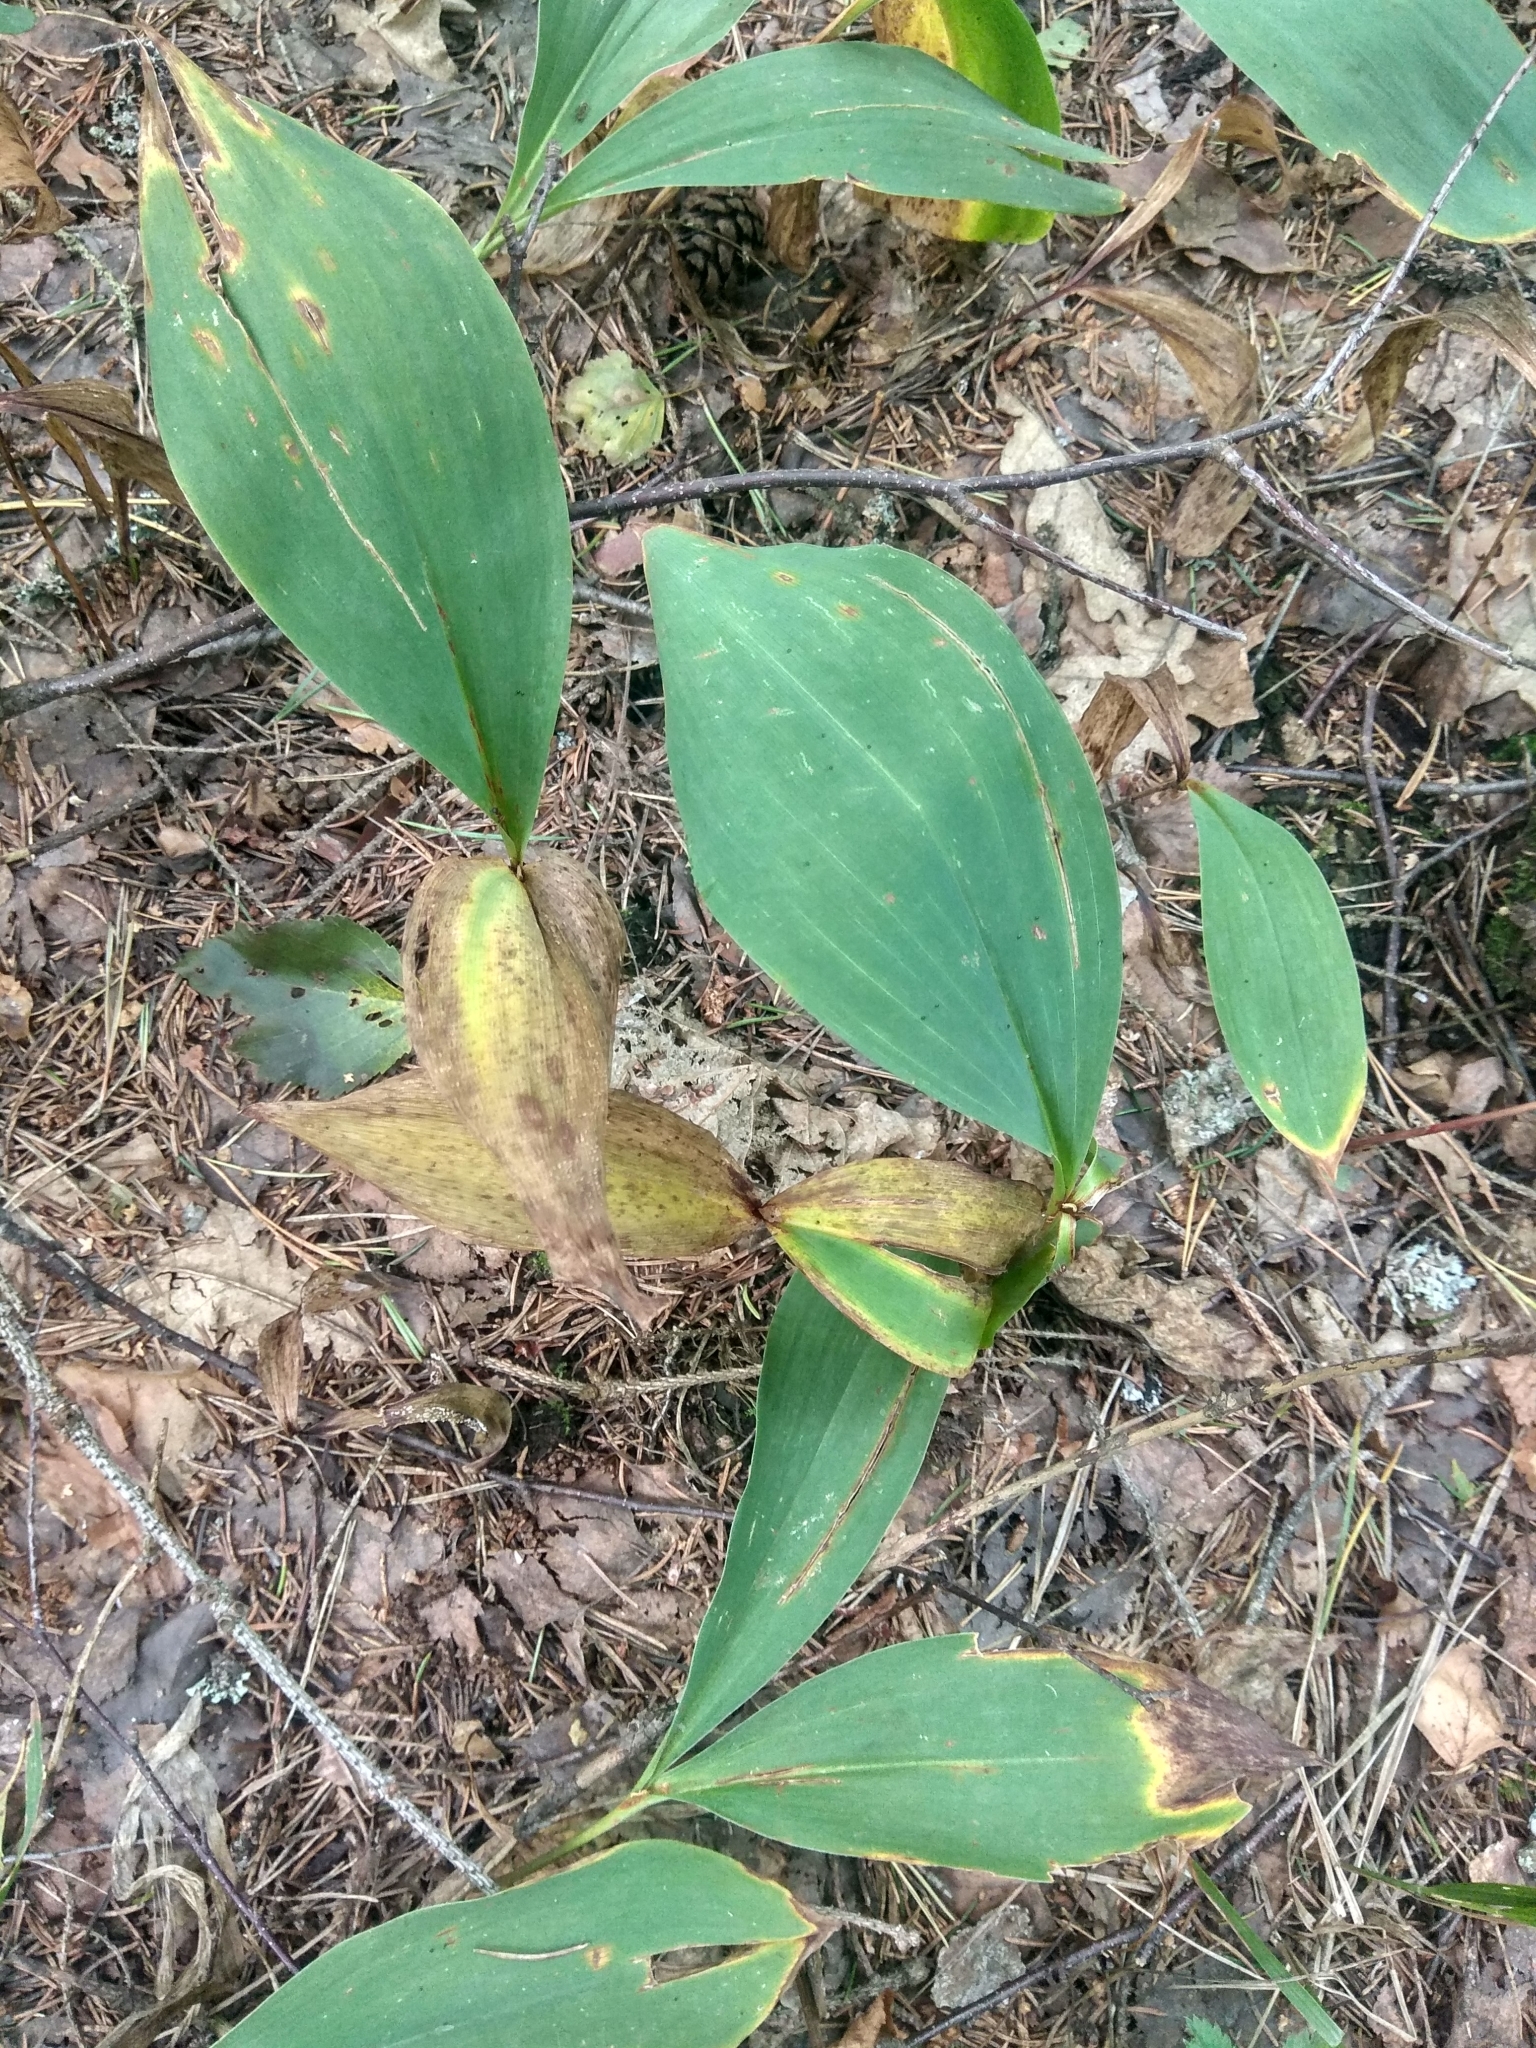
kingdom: Plantae
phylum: Tracheophyta
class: Liliopsida
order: Asparagales
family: Asparagaceae
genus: Convallaria
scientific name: Convallaria majalis
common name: Lily-of-the-valley
